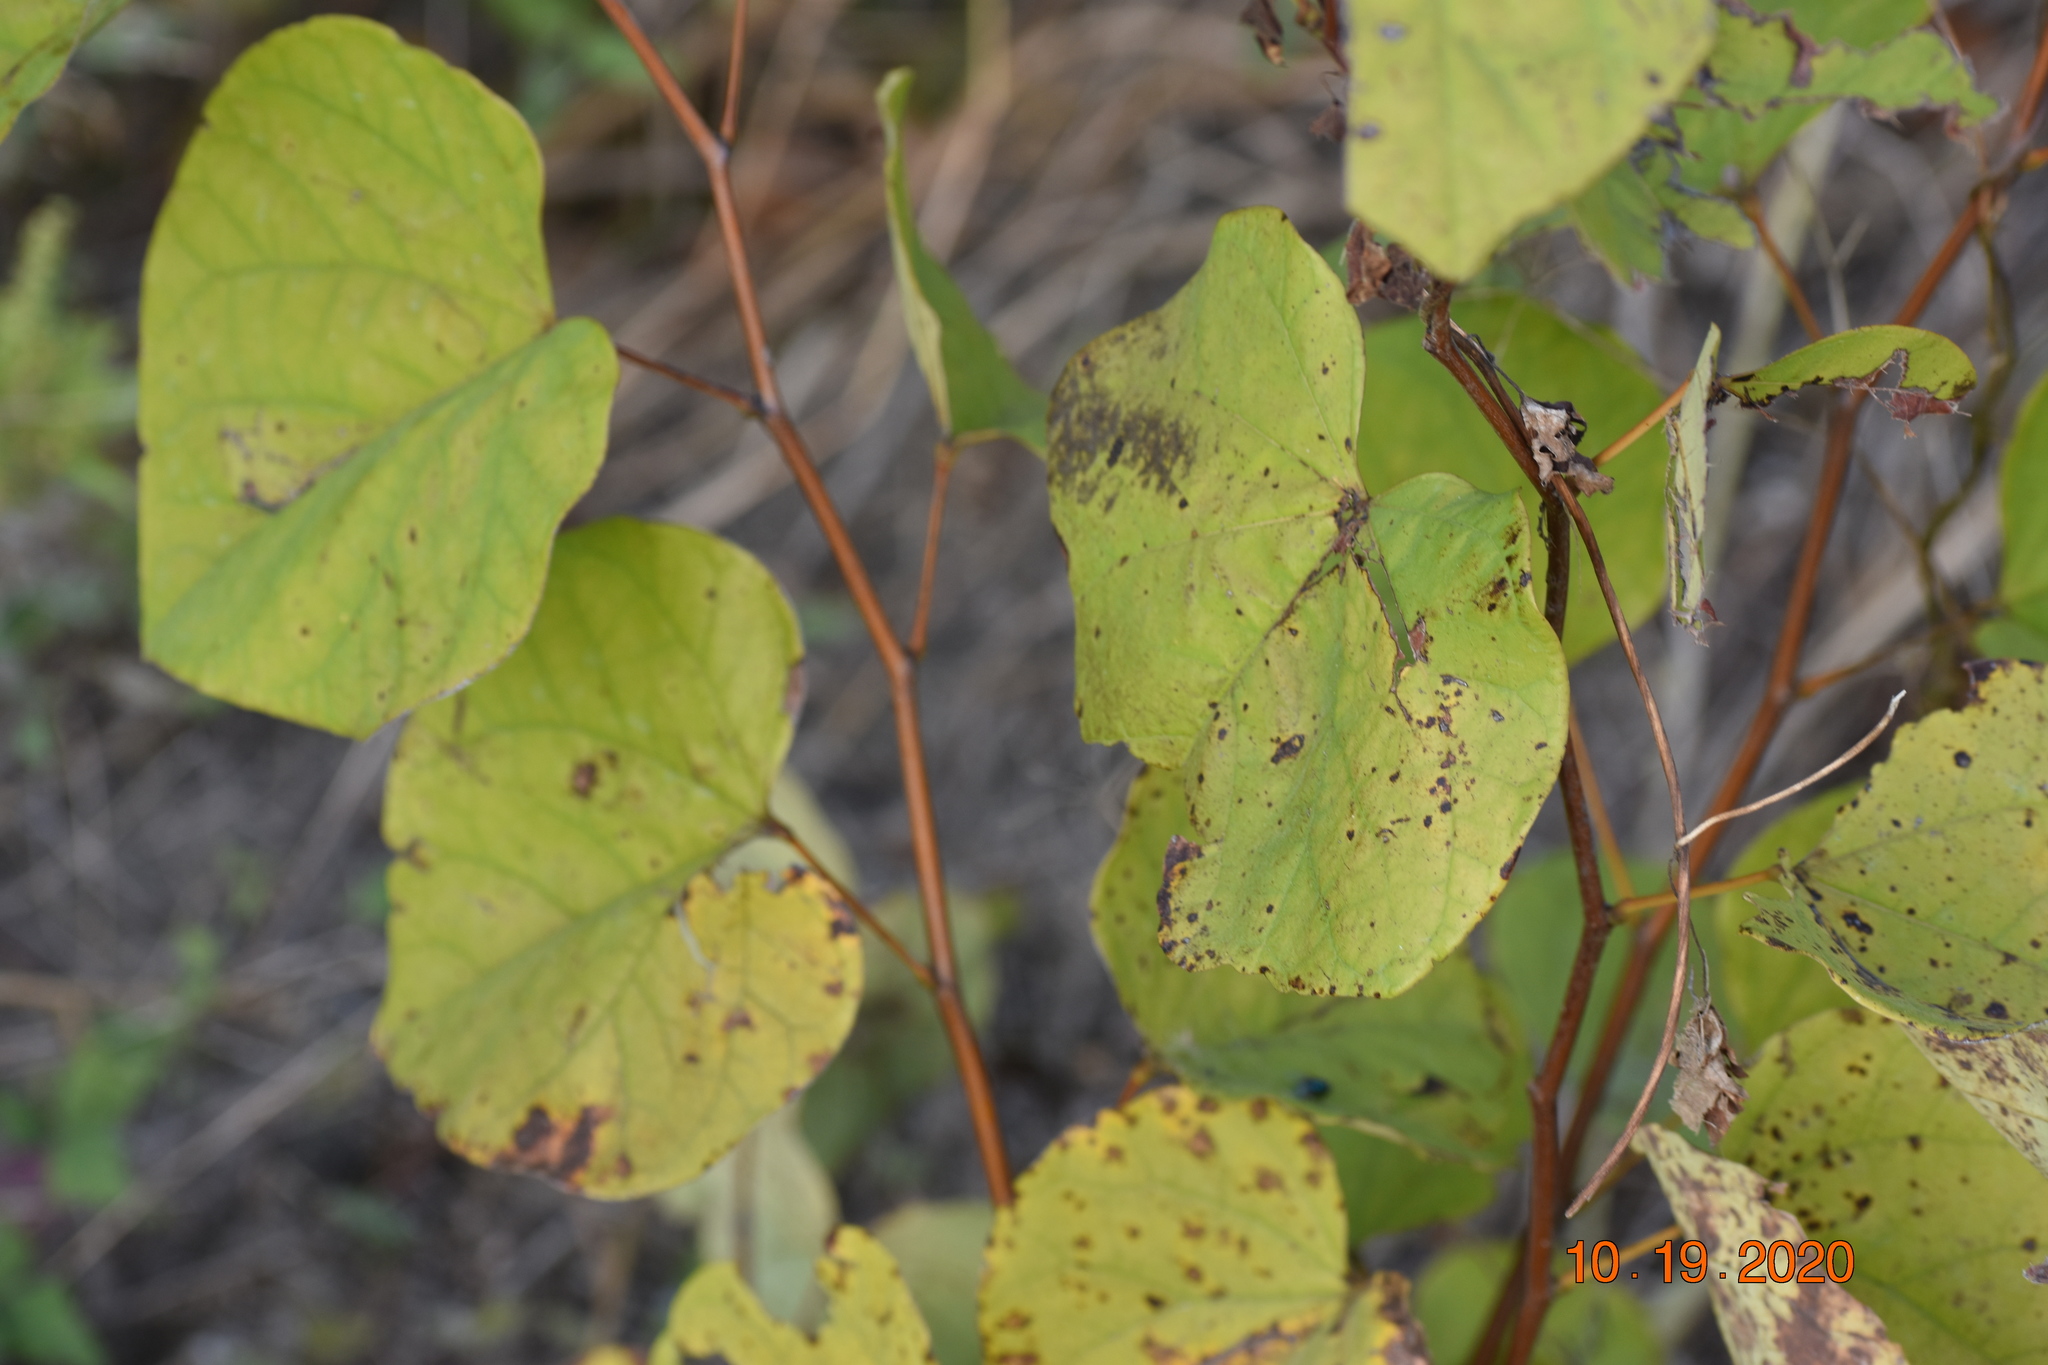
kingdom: Plantae
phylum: Tracheophyta
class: Magnoliopsida
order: Fabales
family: Fabaceae
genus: Cercis
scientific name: Cercis canadensis
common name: Eastern redbud
